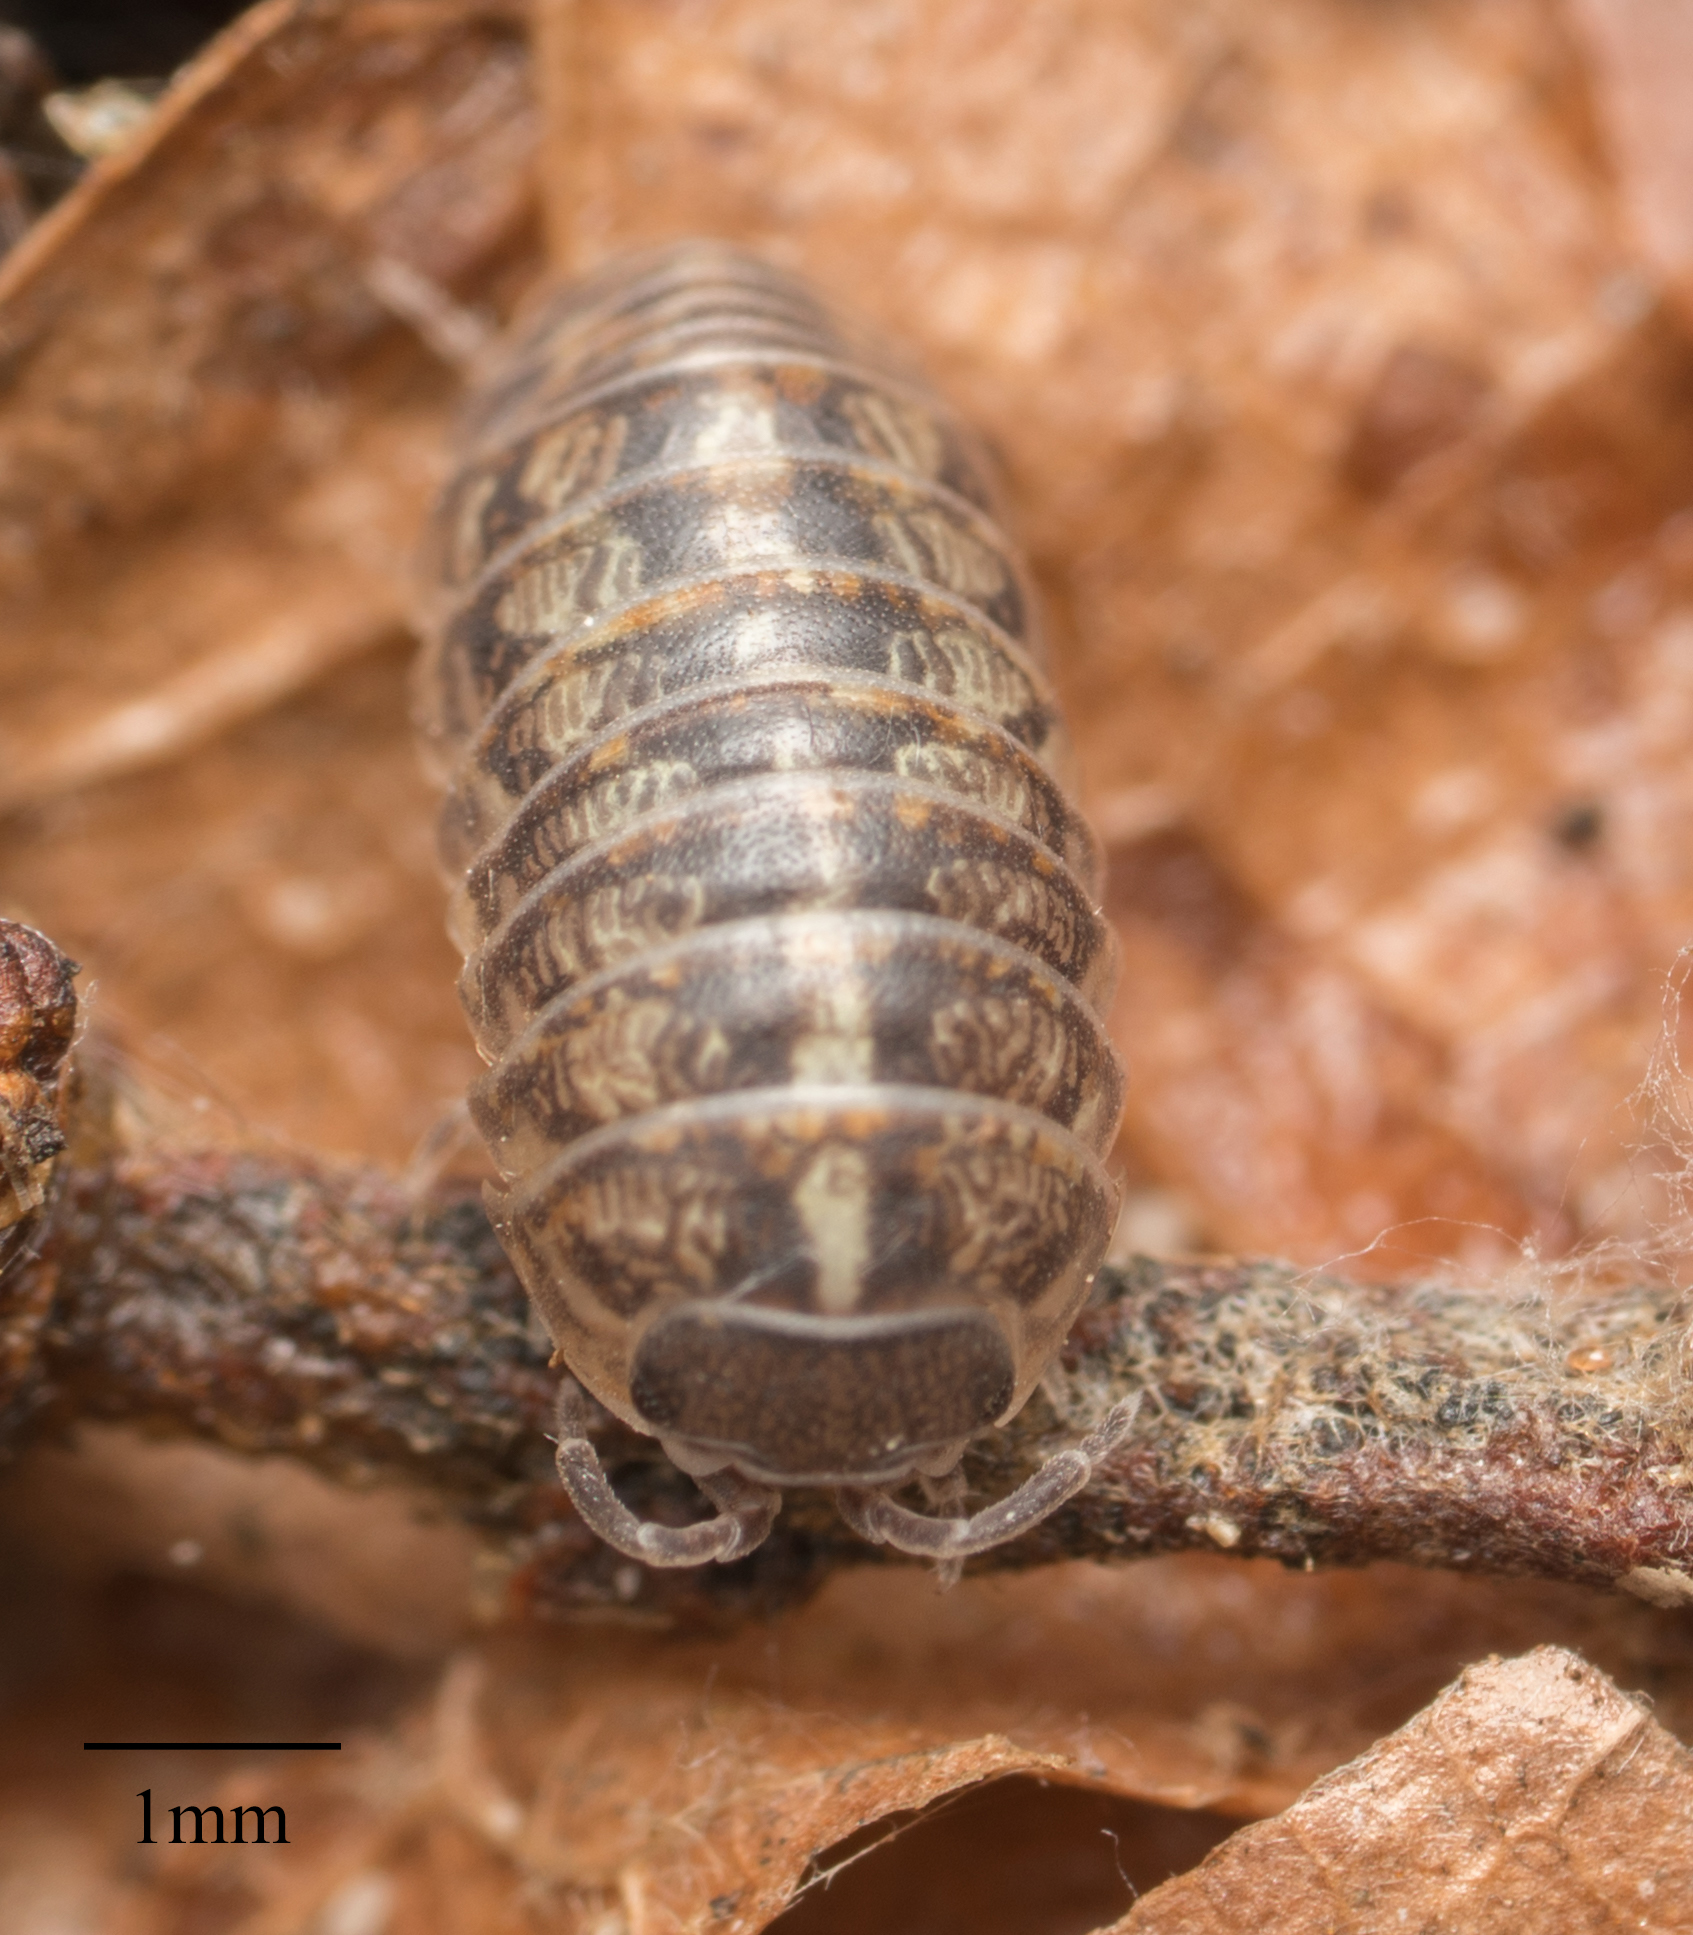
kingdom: Animalia
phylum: Arthropoda
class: Malacostraca
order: Isopoda
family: Armadillidiidae
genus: Armadillidium
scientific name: Armadillidium vulgare
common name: Common pill woodlouse
